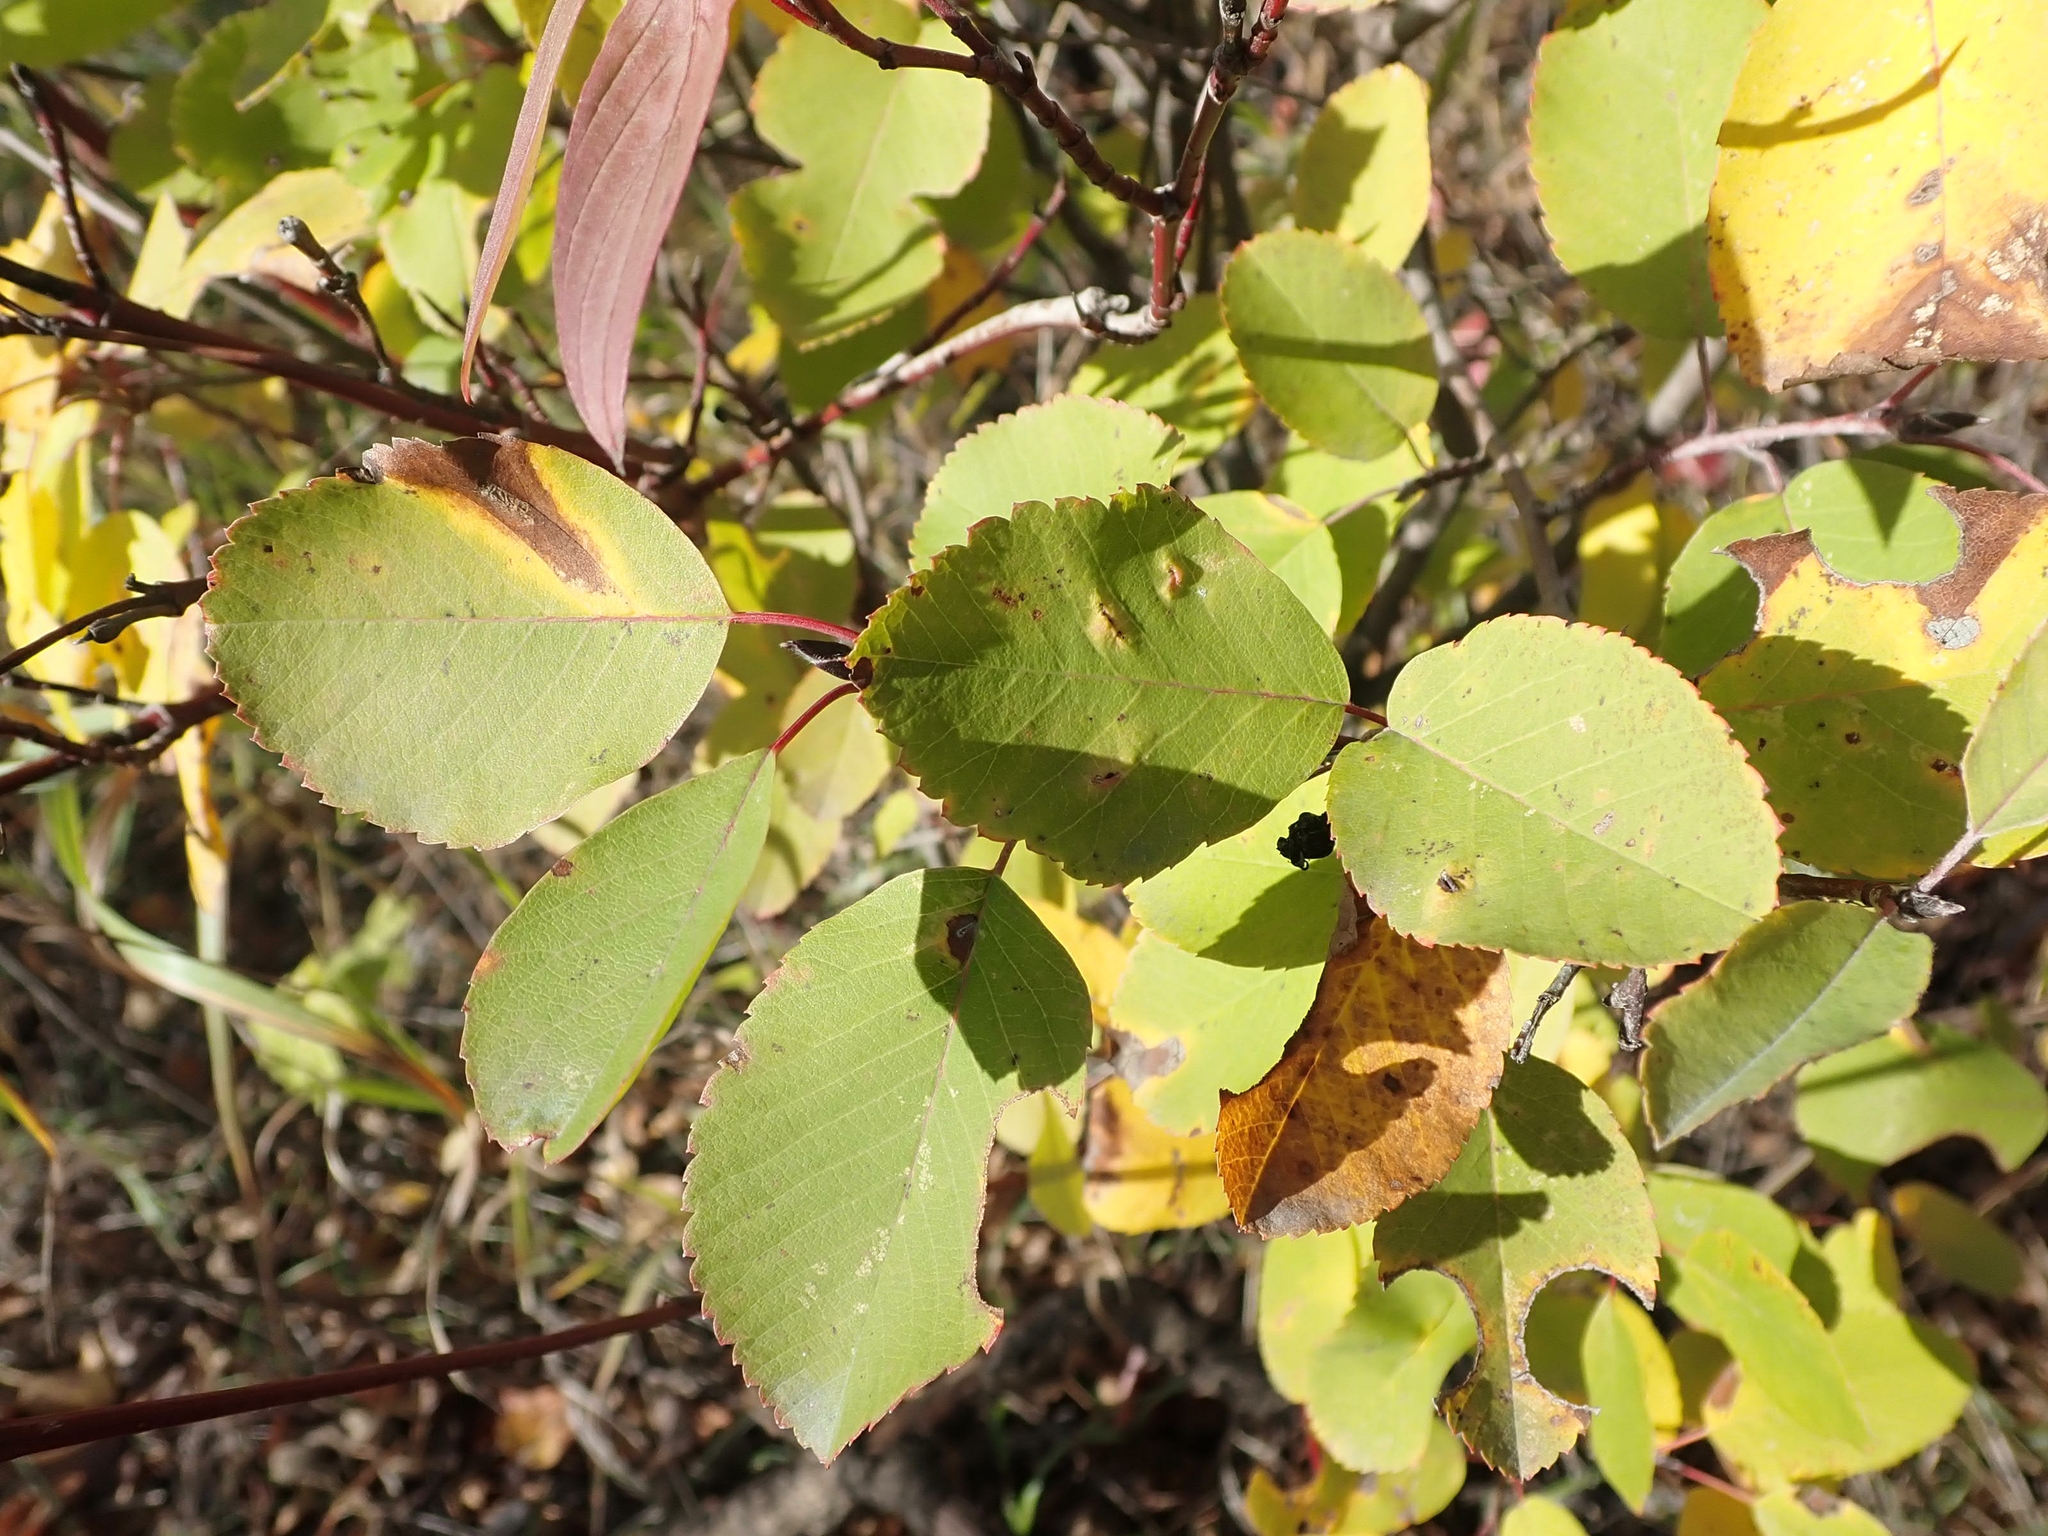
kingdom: Plantae
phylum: Tracheophyta
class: Magnoliopsida
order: Rosales
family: Rosaceae
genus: Amelanchier
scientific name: Amelanchier alnifolia
